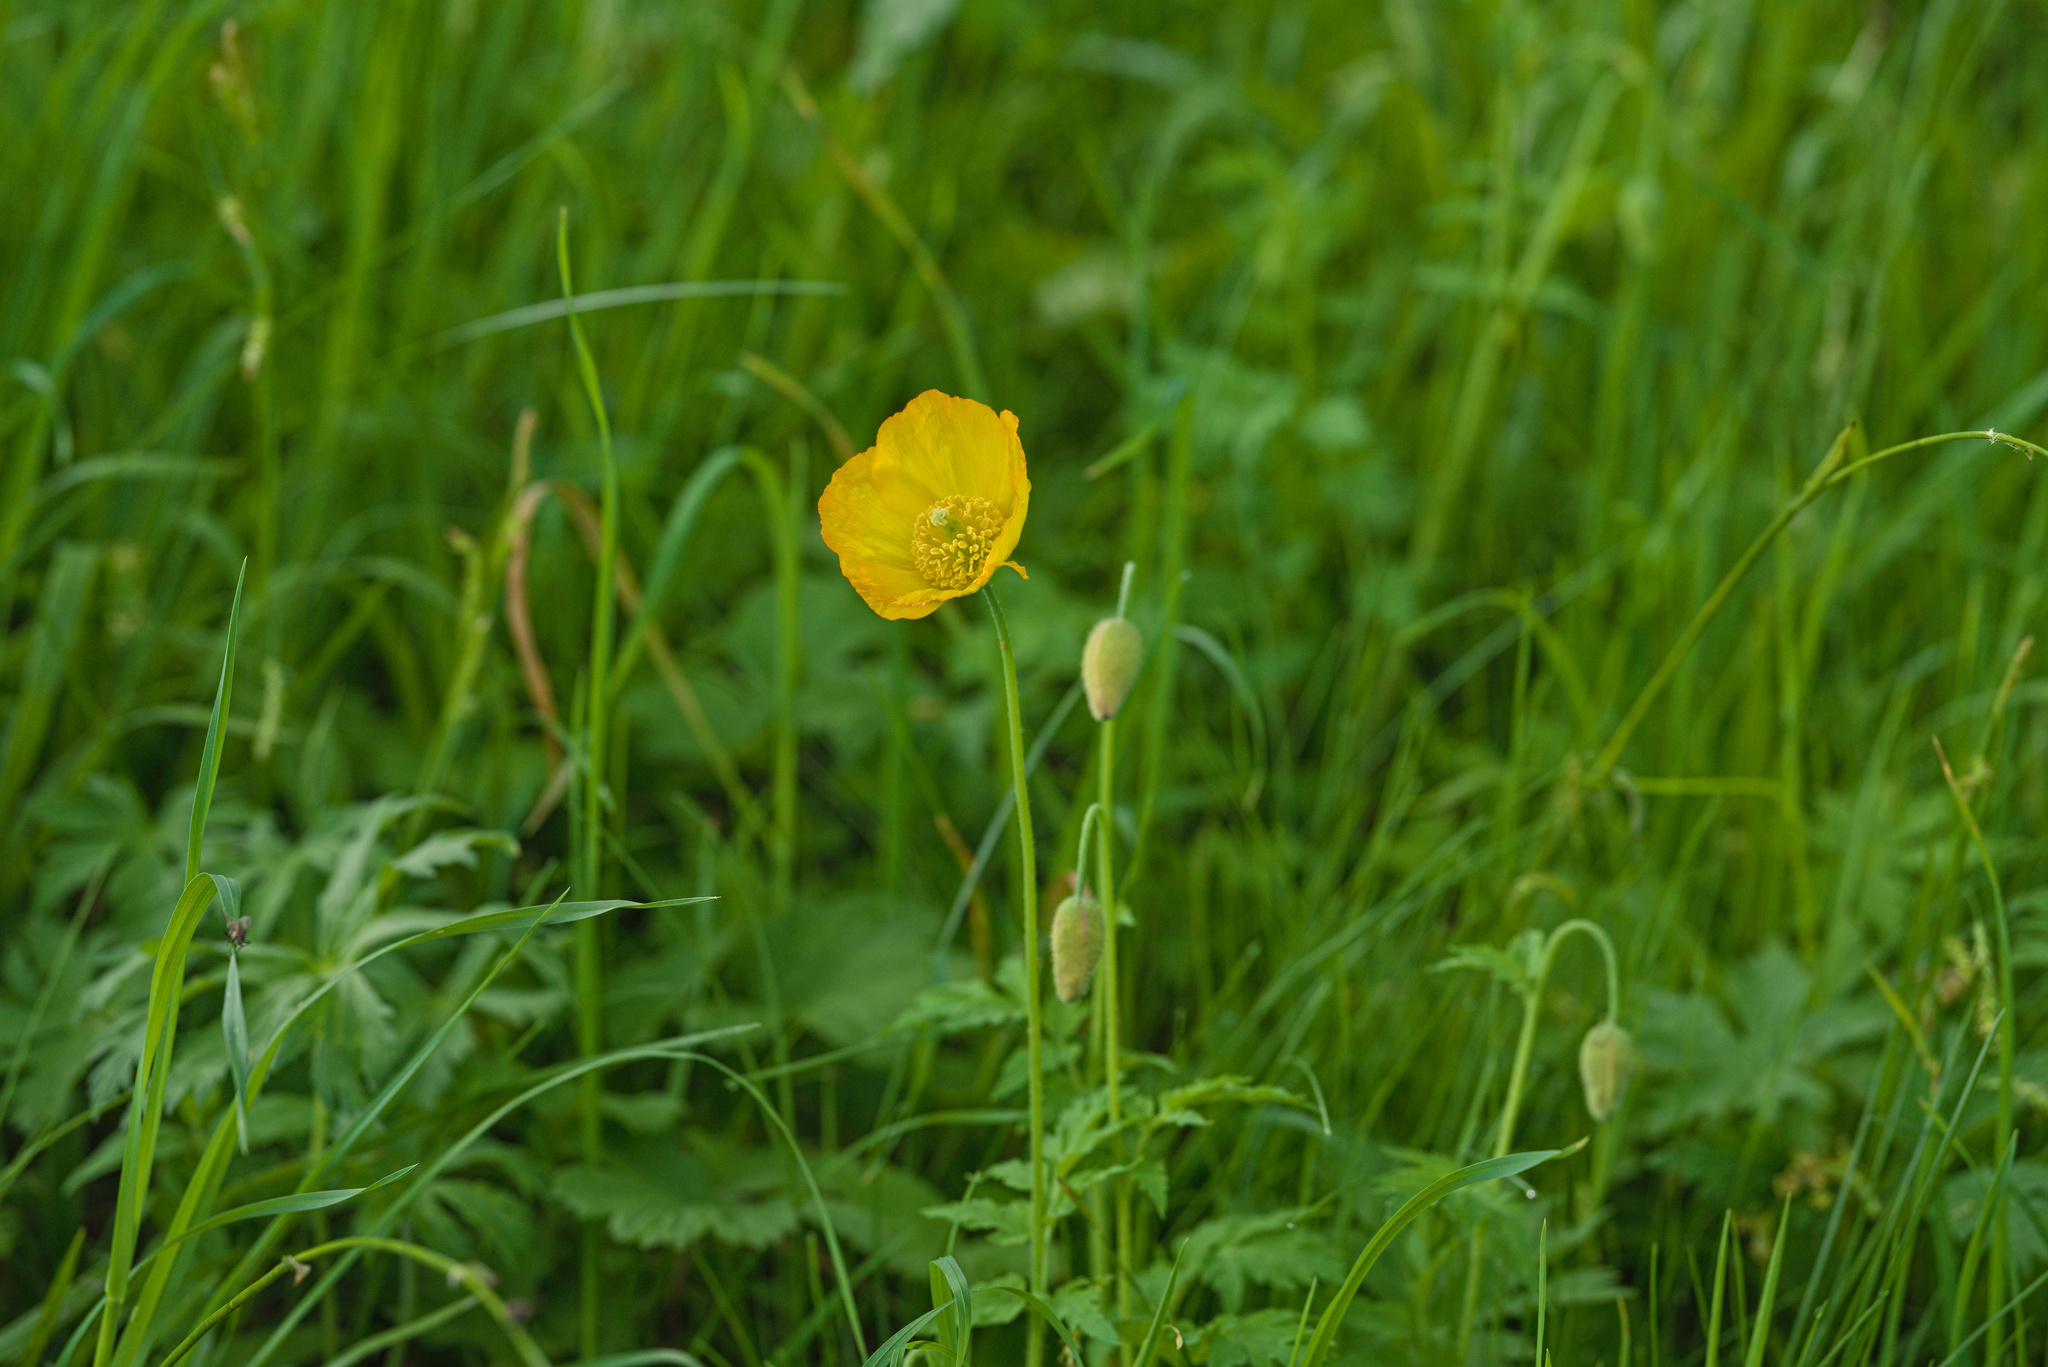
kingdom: Plantae
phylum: Tracheophyta
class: Magnoliopsida
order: Ranunculales
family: Papaveraceae
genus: Papaver
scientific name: Papaver cambricum
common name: Poppy
